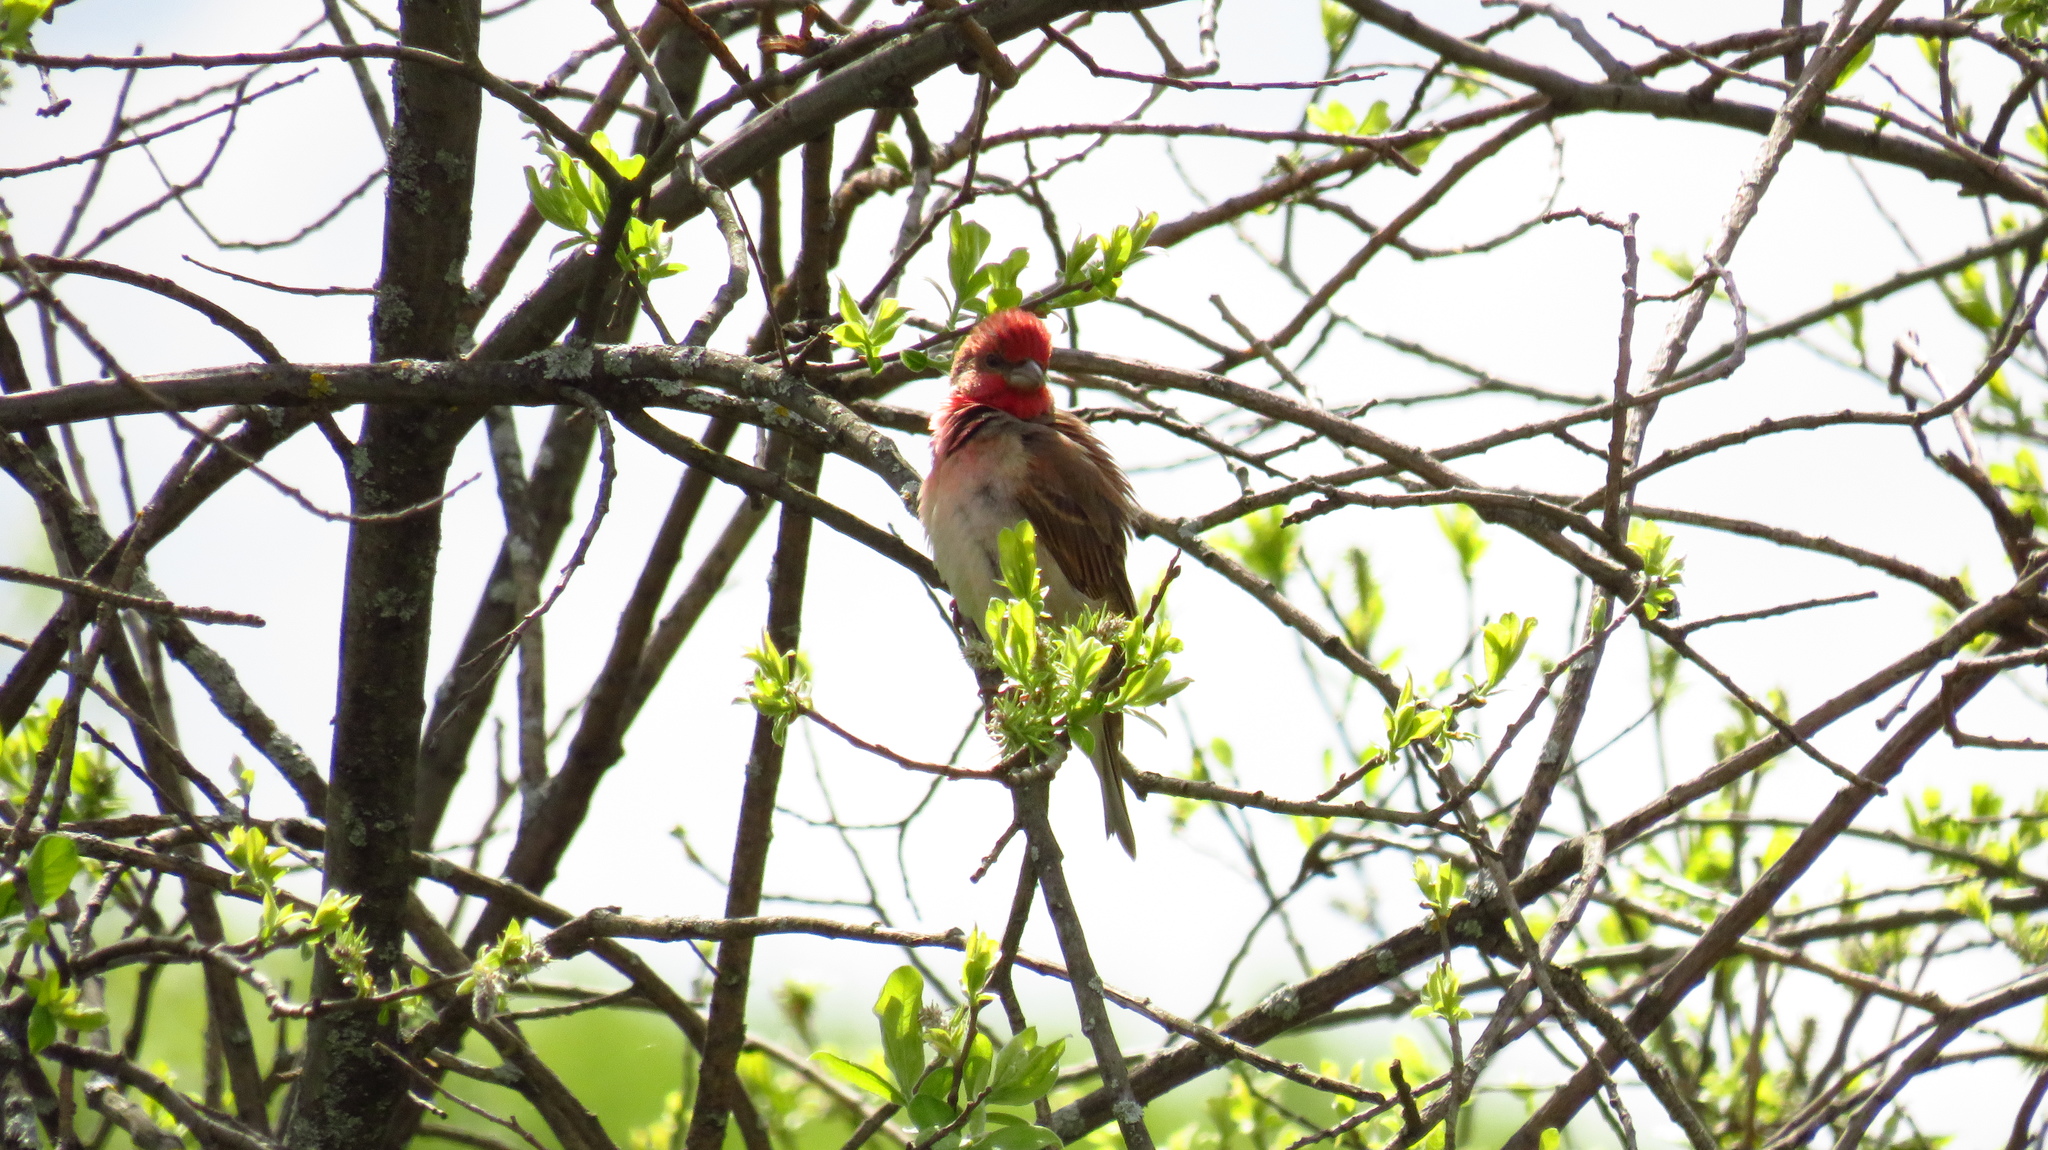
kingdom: Animalia
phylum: Chordata
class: Aves
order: Passeriformes
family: Fringillidae
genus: Carpodacus
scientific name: Carpodacus erythrinus
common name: Common rosefinch
